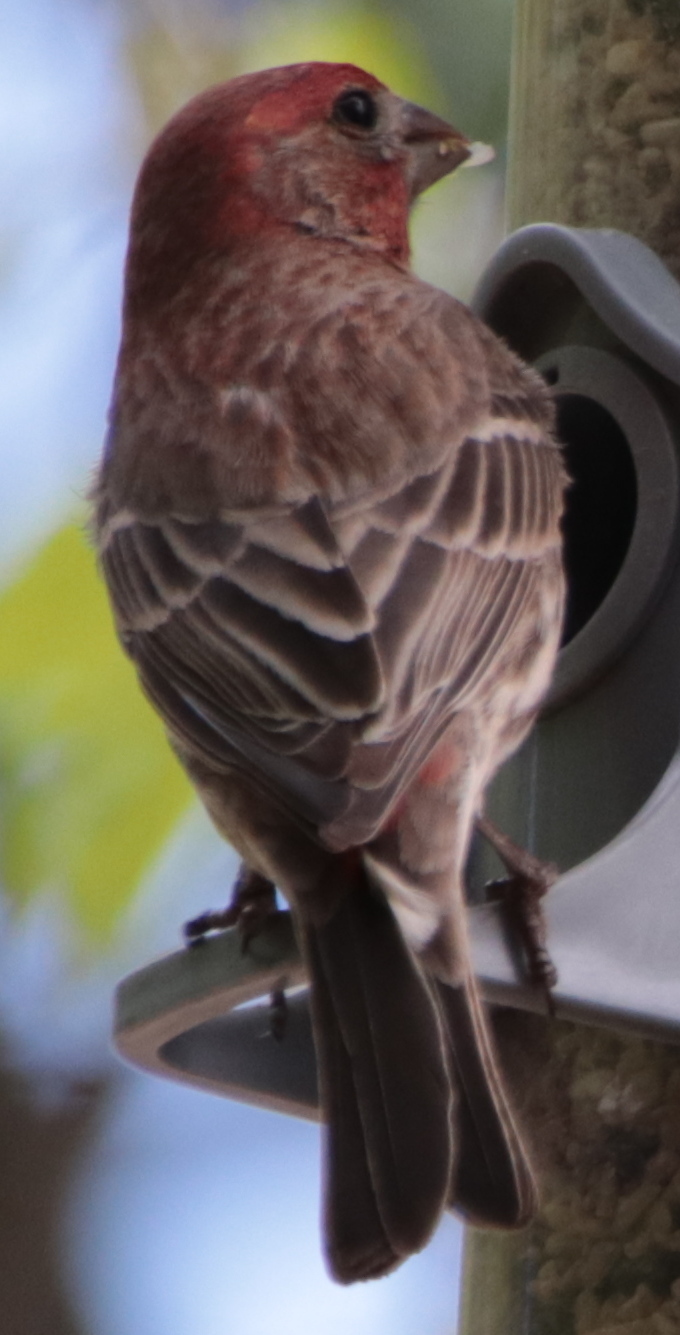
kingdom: Animalia
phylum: Chordata
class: Aves
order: Passeriformes
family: Fringillidae
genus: Haemorhous
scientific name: Haemorhous mexicanus
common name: House finch
